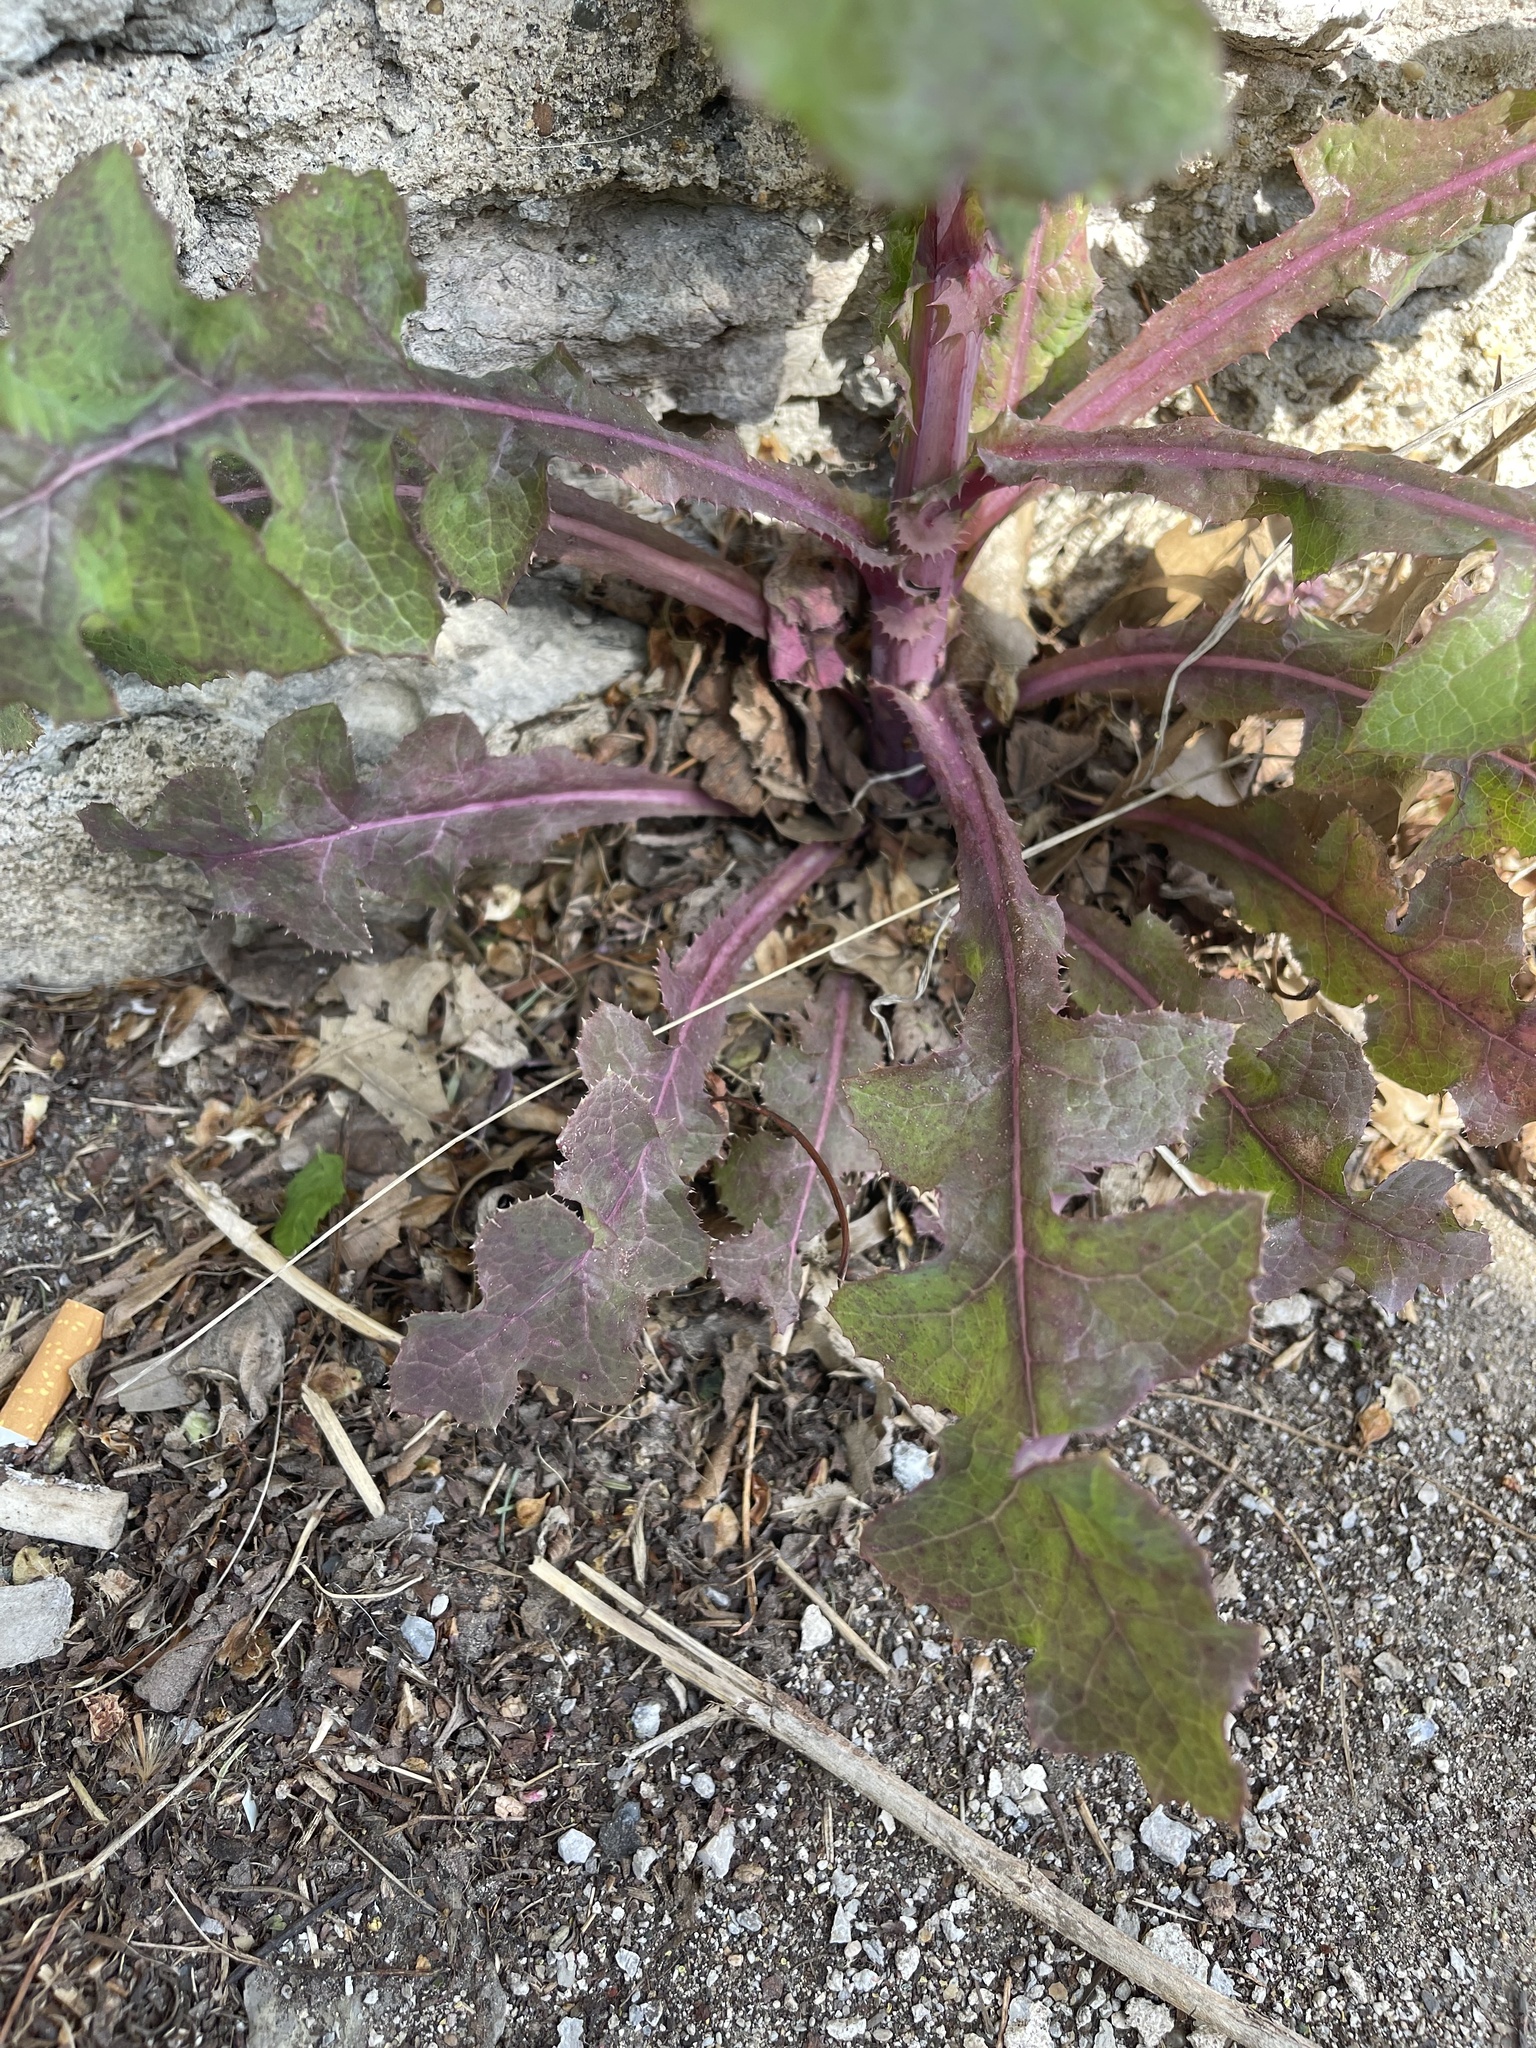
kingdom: Plantae
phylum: Tracheophyta
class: Magnoliopsida
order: Asterales
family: Asteraceae
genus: Sonchus
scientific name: Sonchus oleraceus
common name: Common sowthistle
